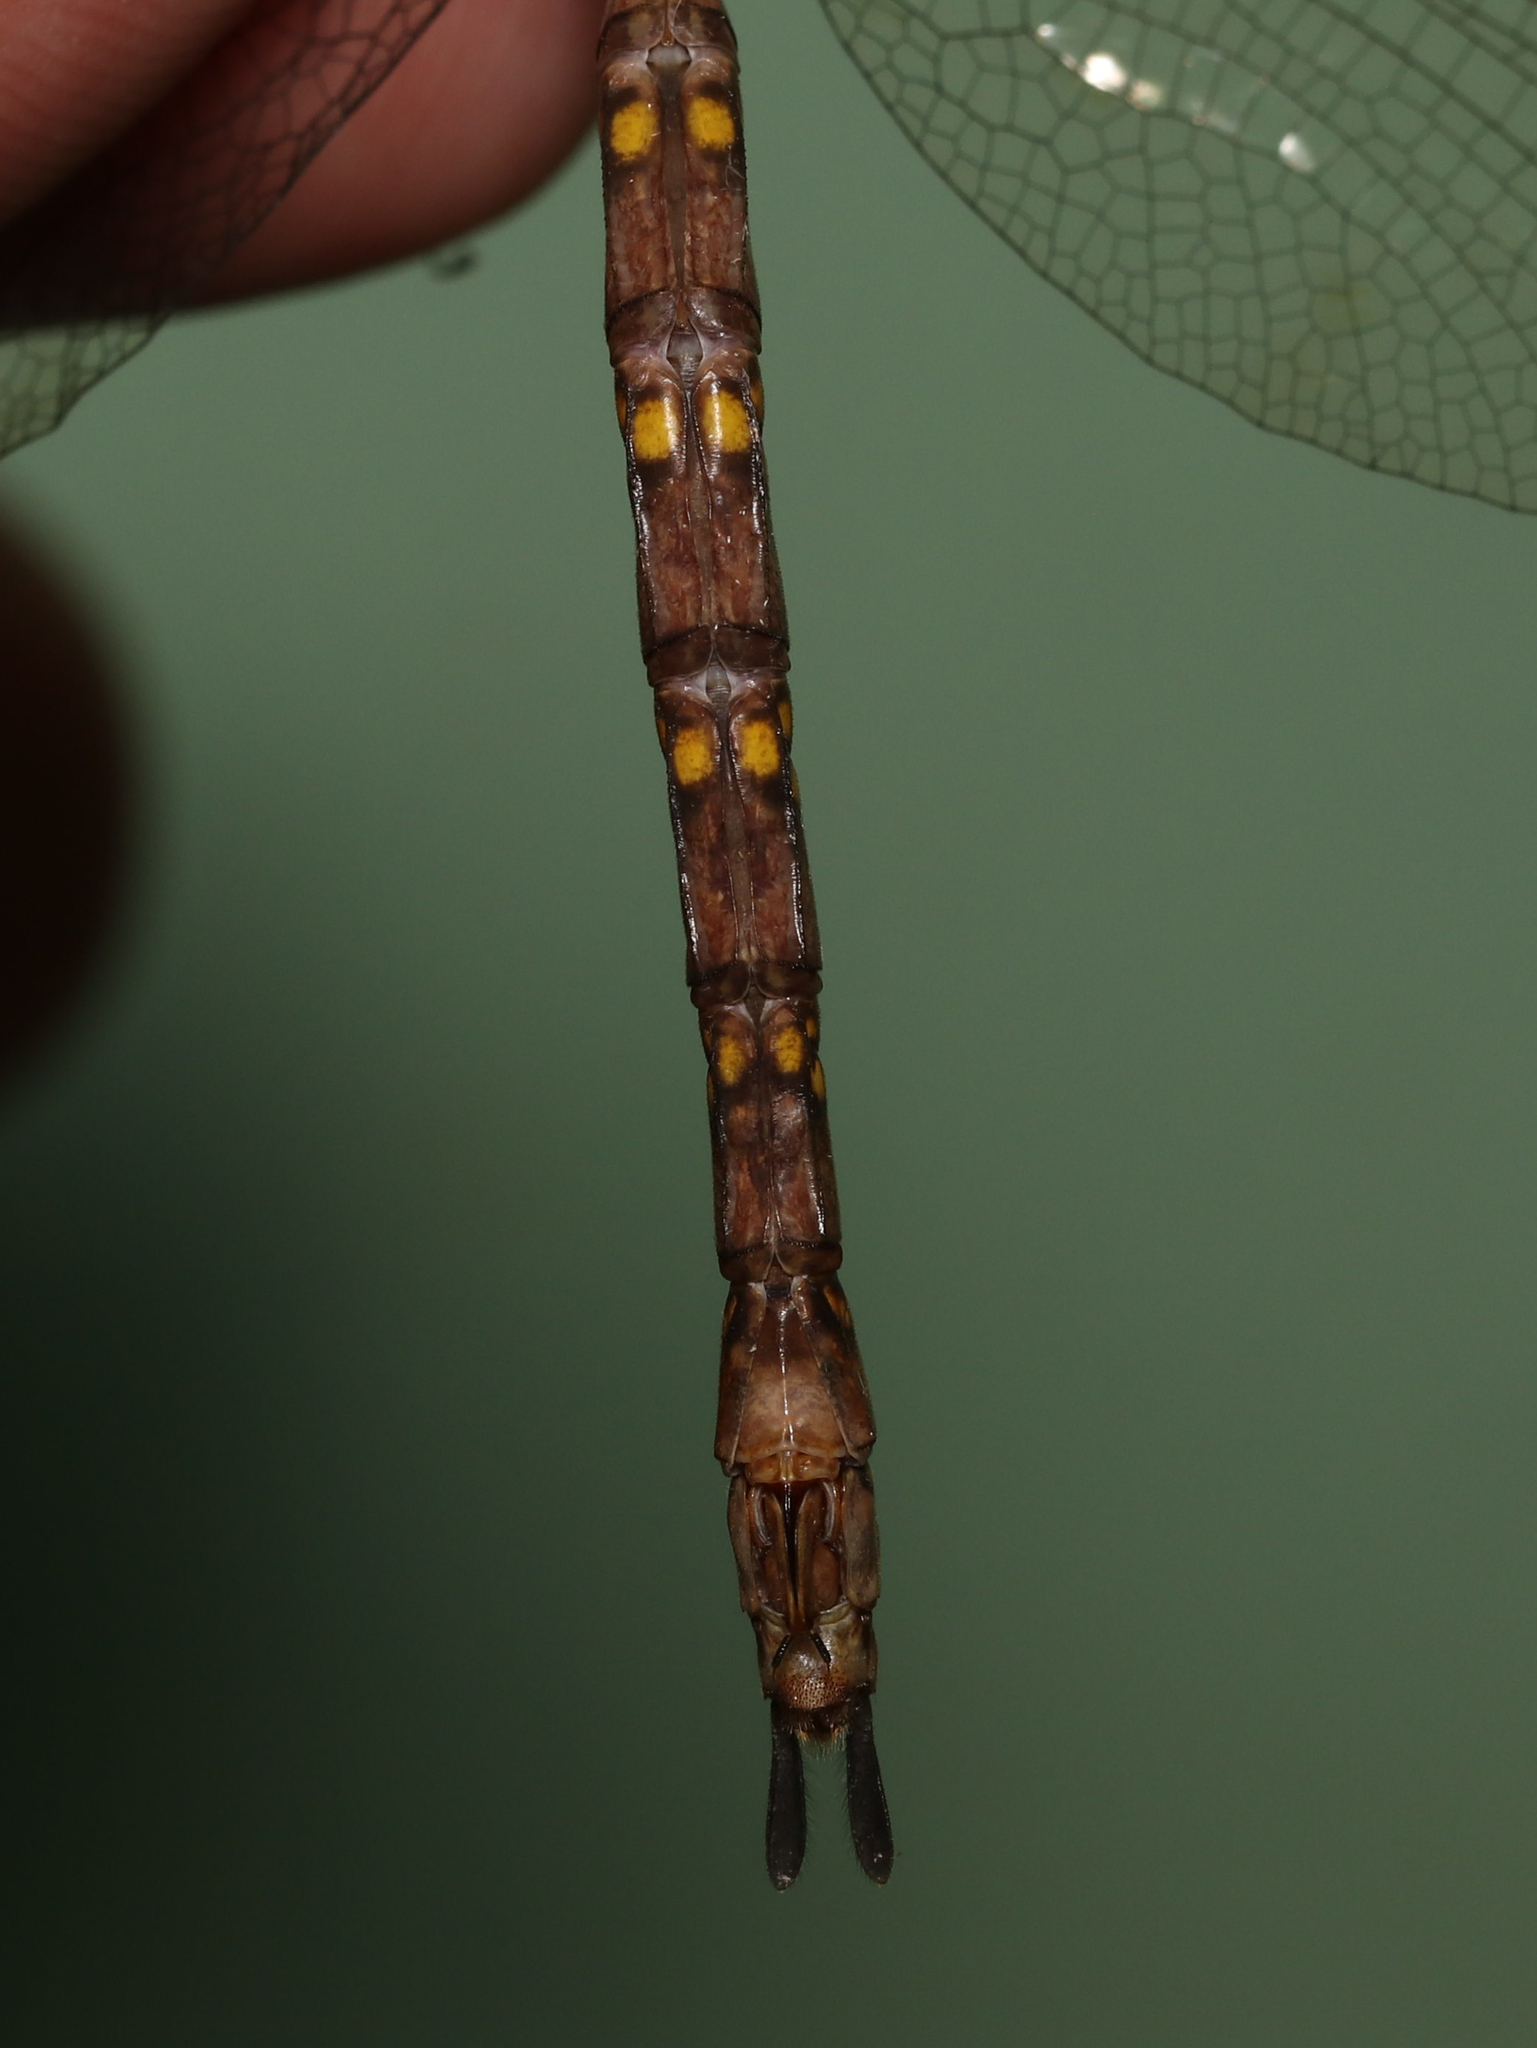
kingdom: Animalia
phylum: Arthropoda
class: Insecta
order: Odonata
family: Aeshnidae
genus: Boyeria
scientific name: Boyeria vinosa
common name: Fawn darner
